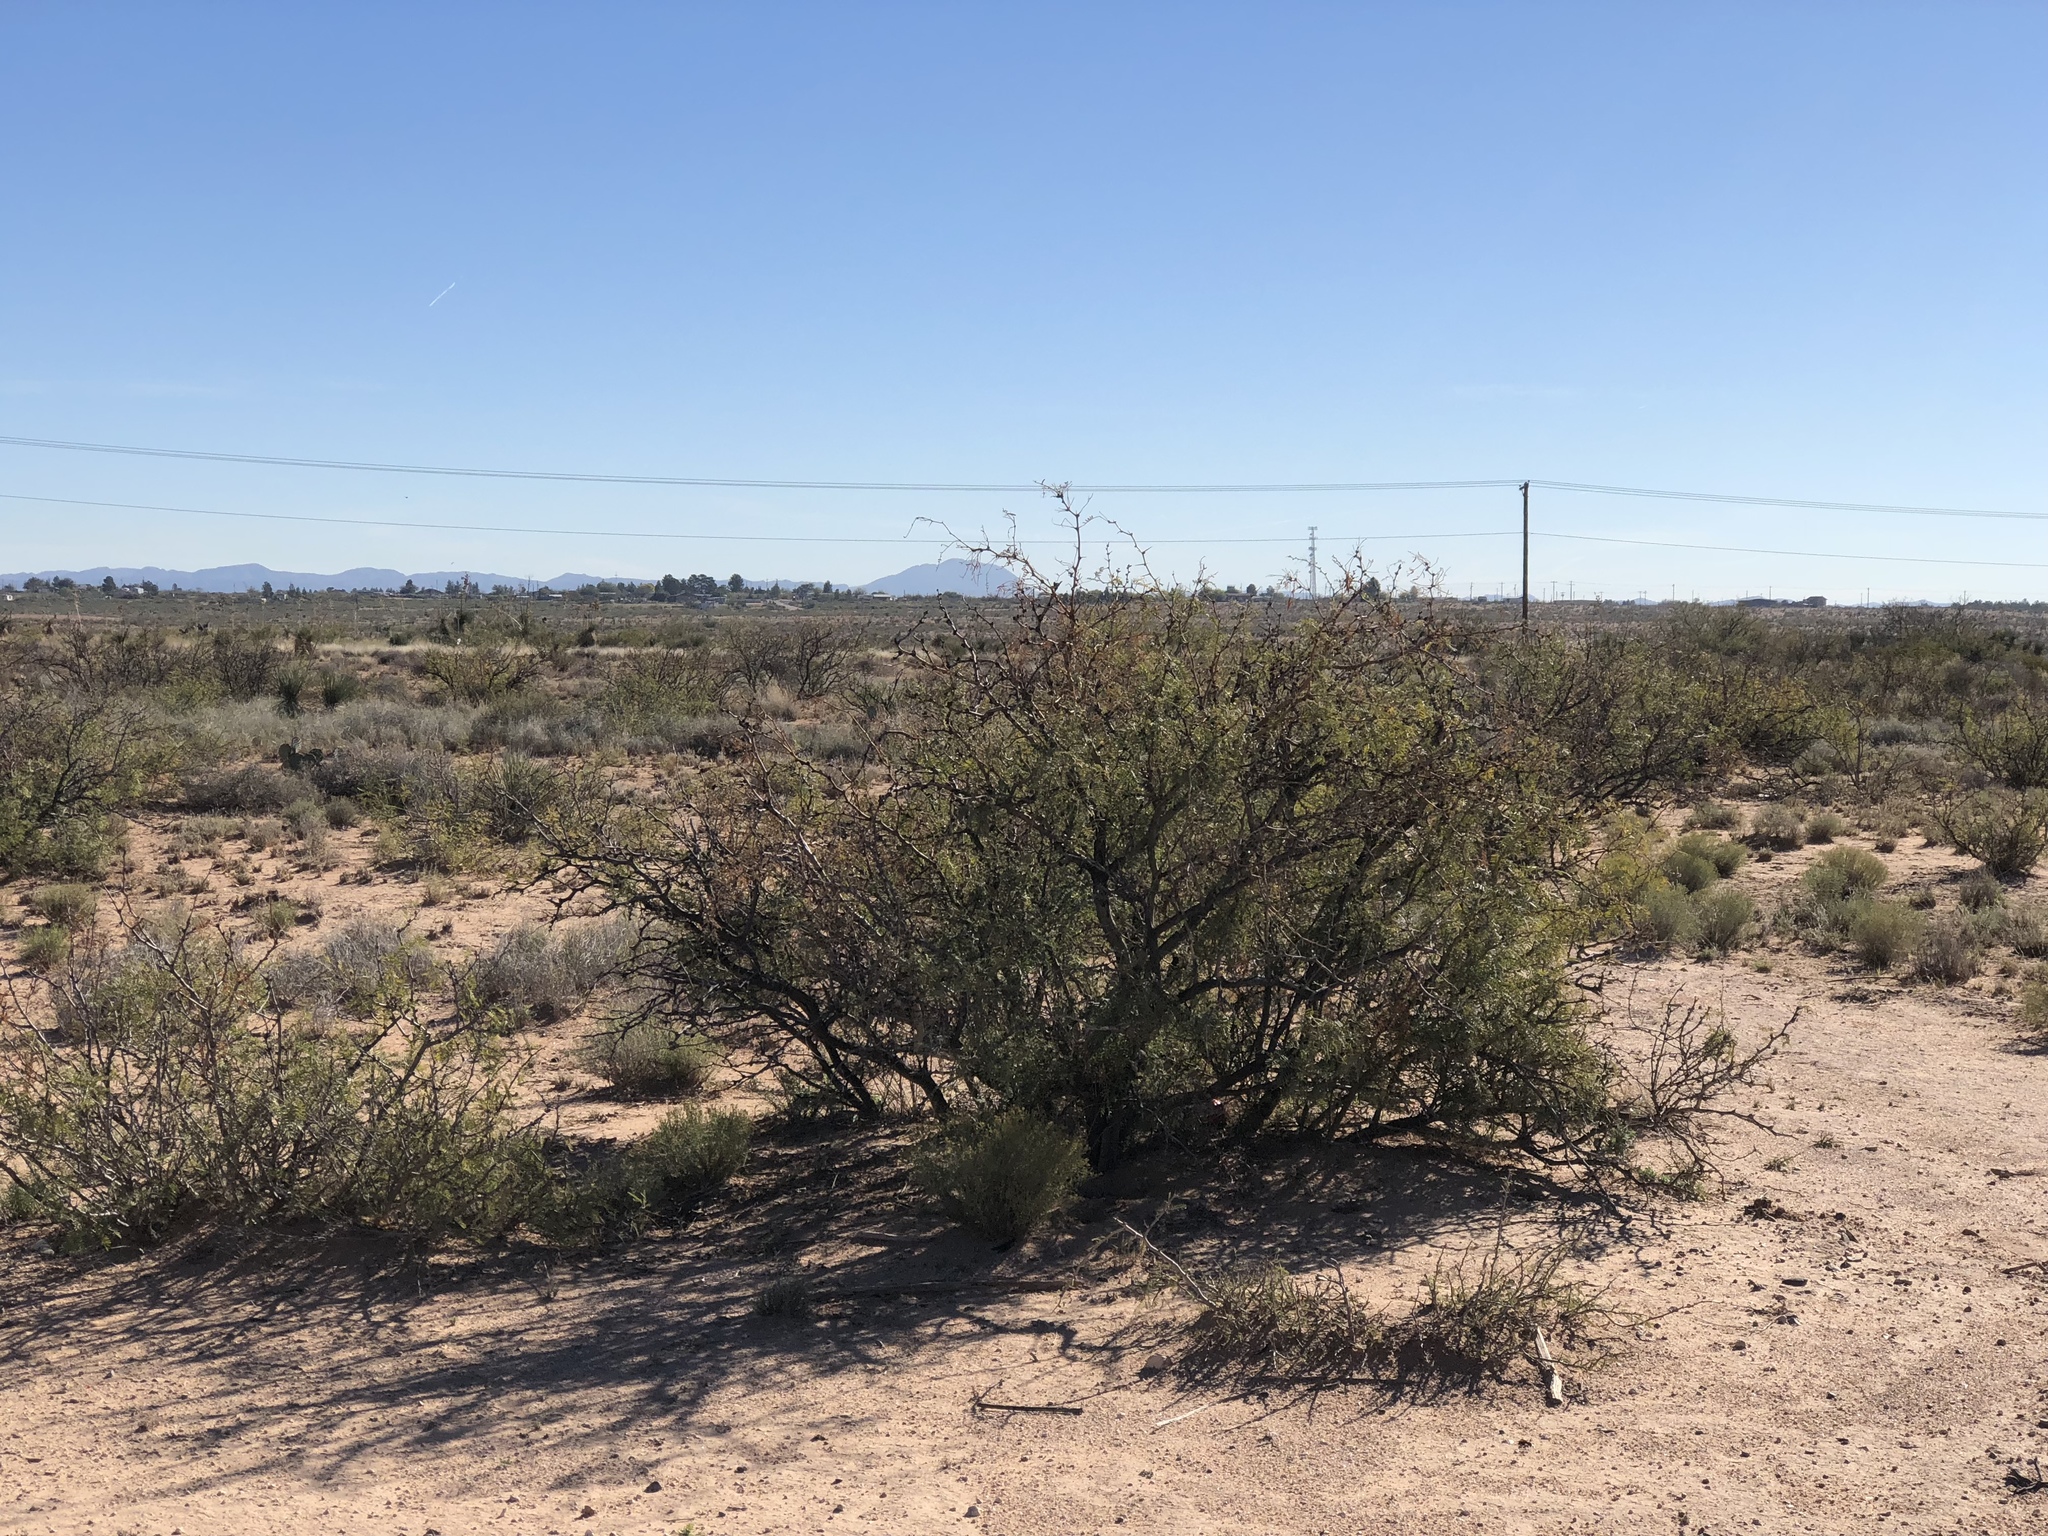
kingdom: Plantae
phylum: Tracheophyta
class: Magnoliopsida
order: Zygophyllales
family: Zygophyllaceae
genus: Larrea
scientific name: Larrea tridentata
